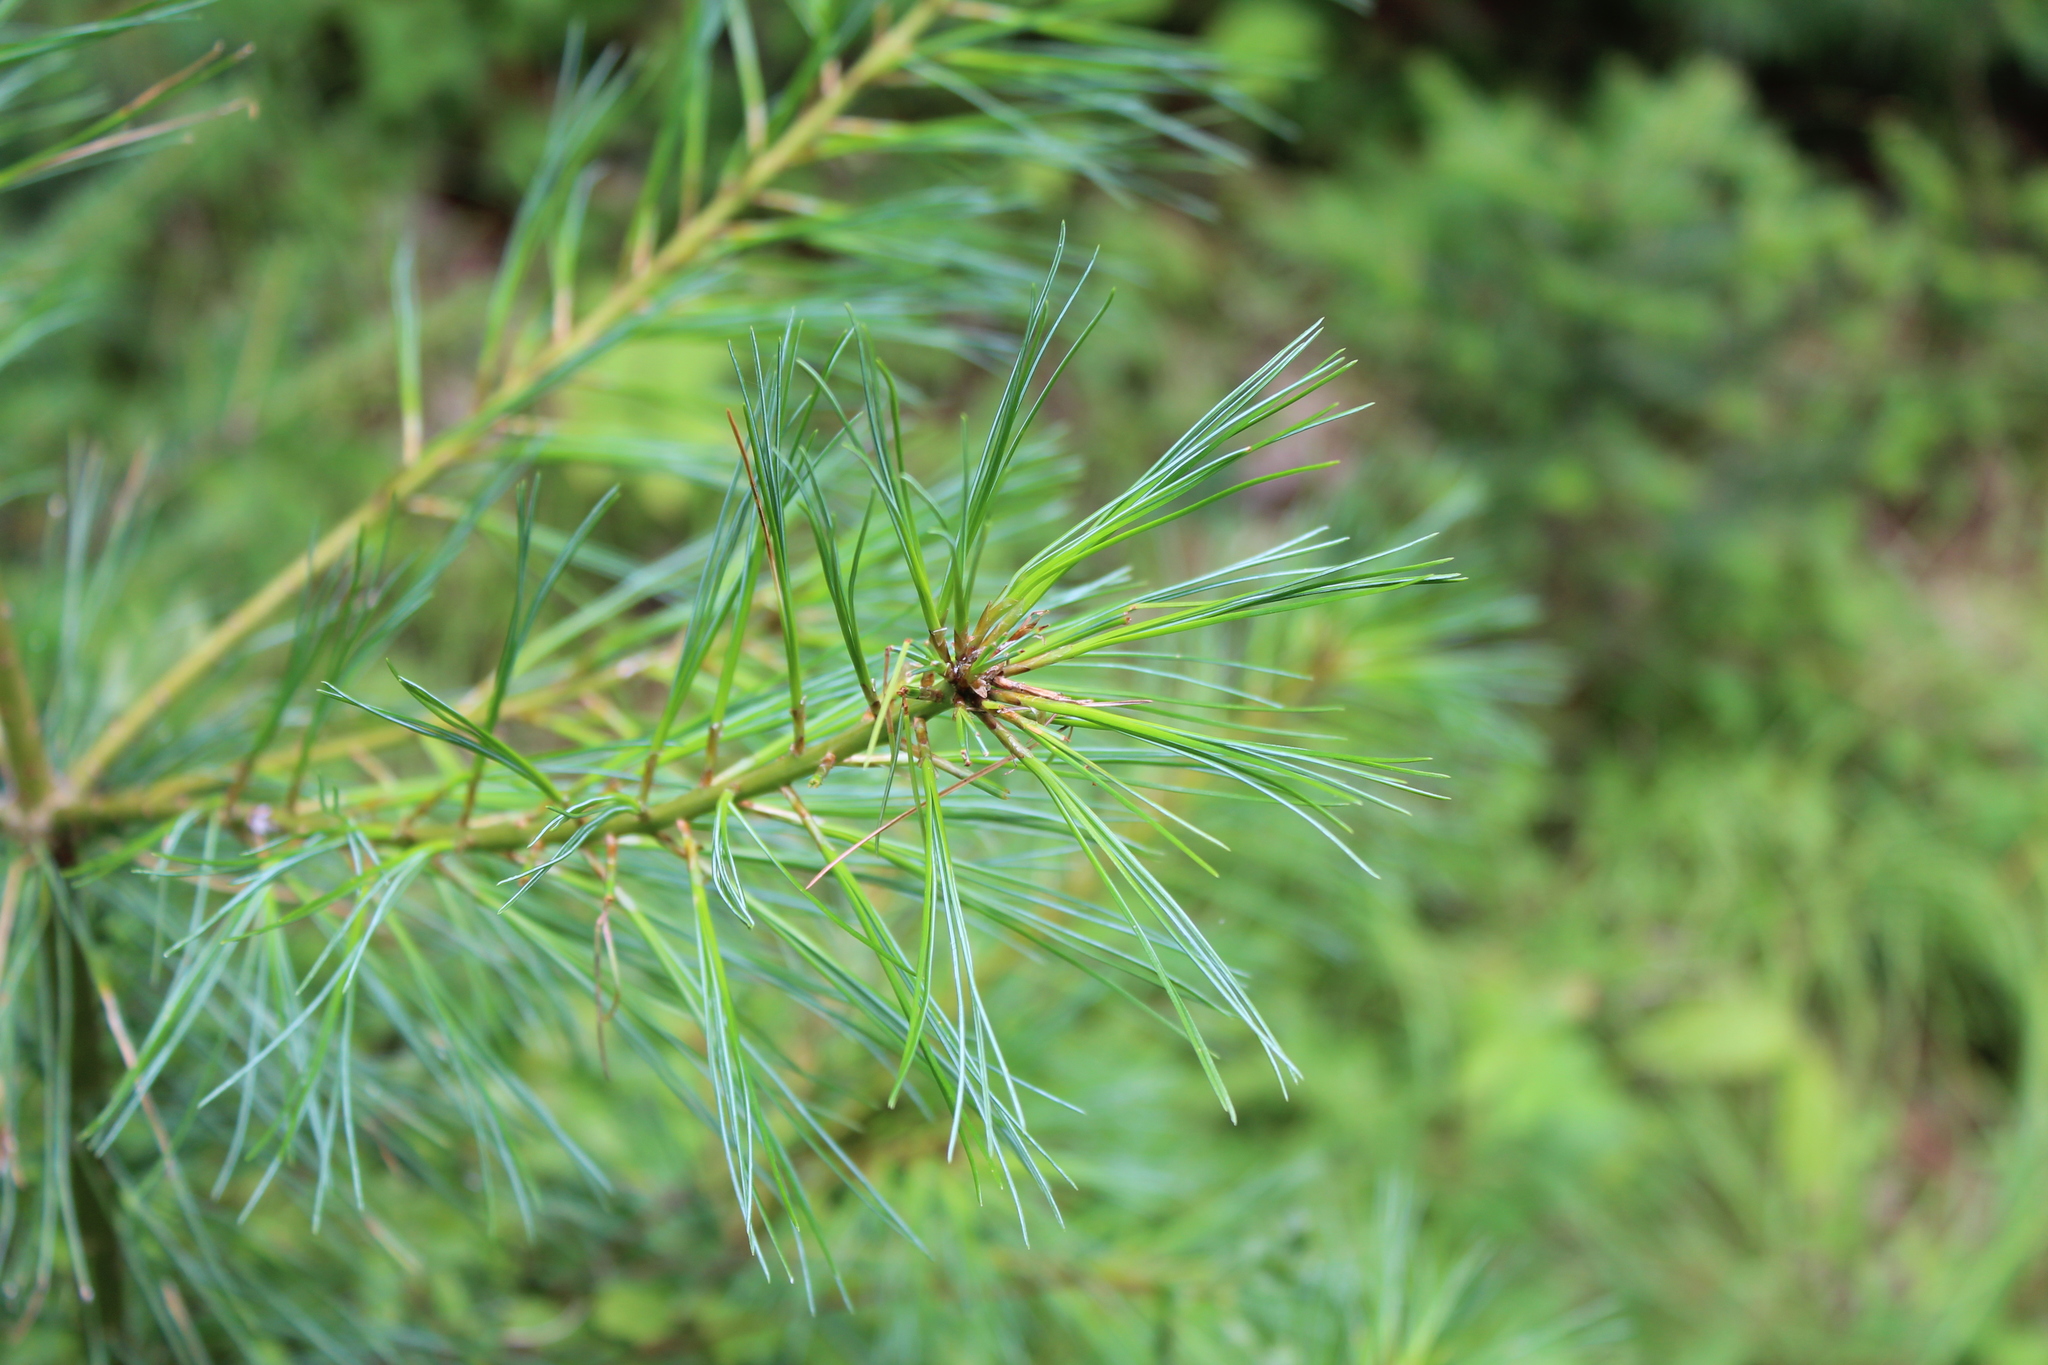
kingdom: Plantae
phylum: Tracheophyta
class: Pinopsida
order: Pinales
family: Pinaceae
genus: Pinus
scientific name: Pinus strobus
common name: Weymouth pine
